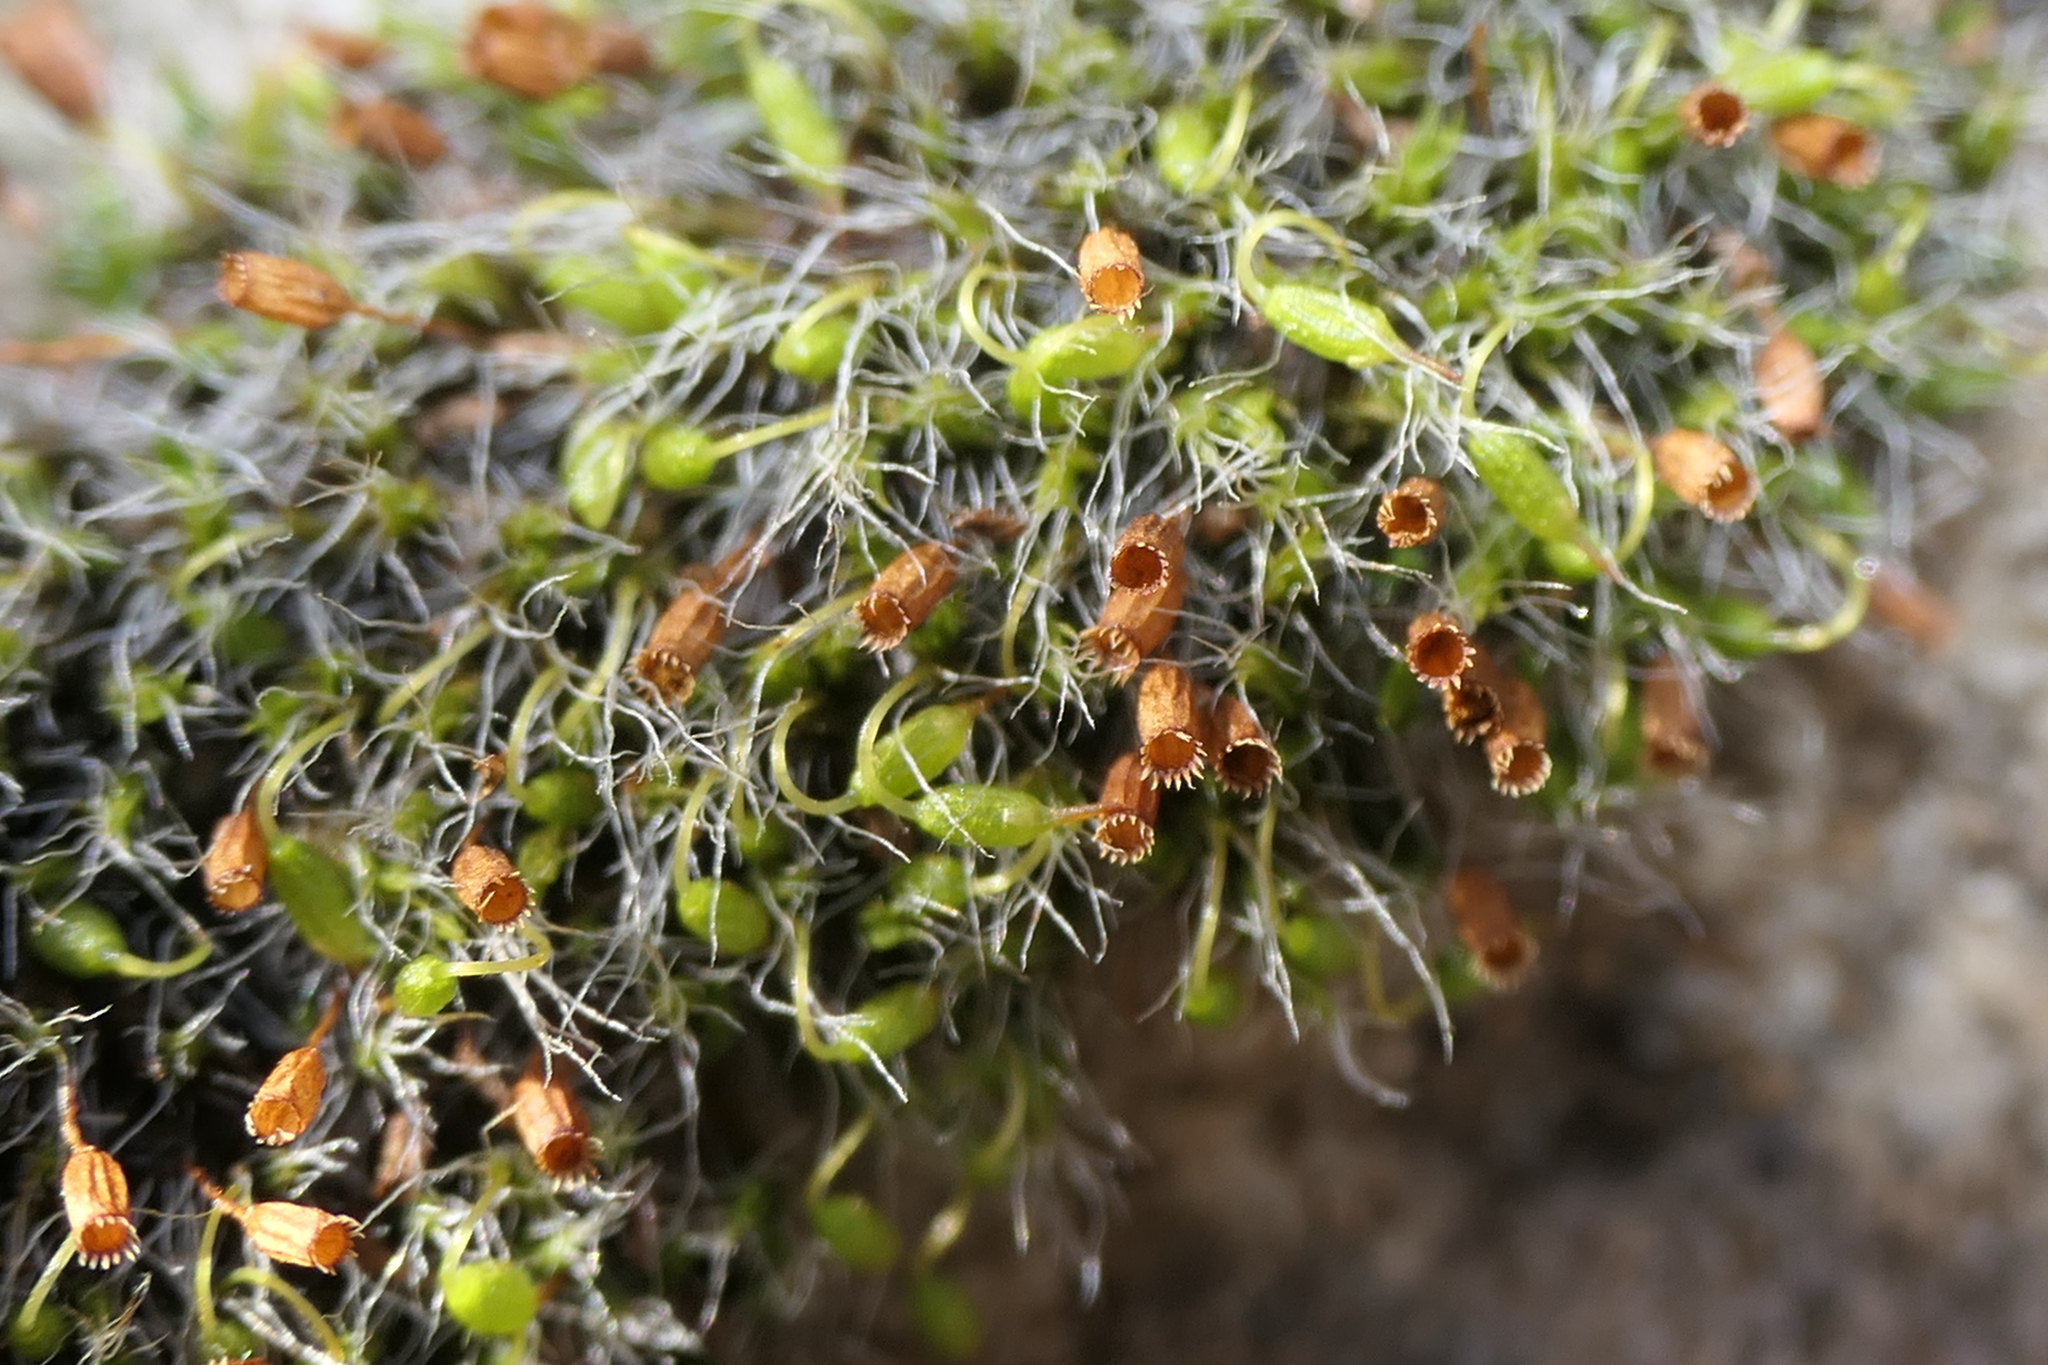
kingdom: Plantae
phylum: Bryophyta
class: Bryopsida
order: Grimmiales
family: Grimmiaceae
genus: Grimmia
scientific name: Grimmia pulvinata
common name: Grey-cushioned grimmia
